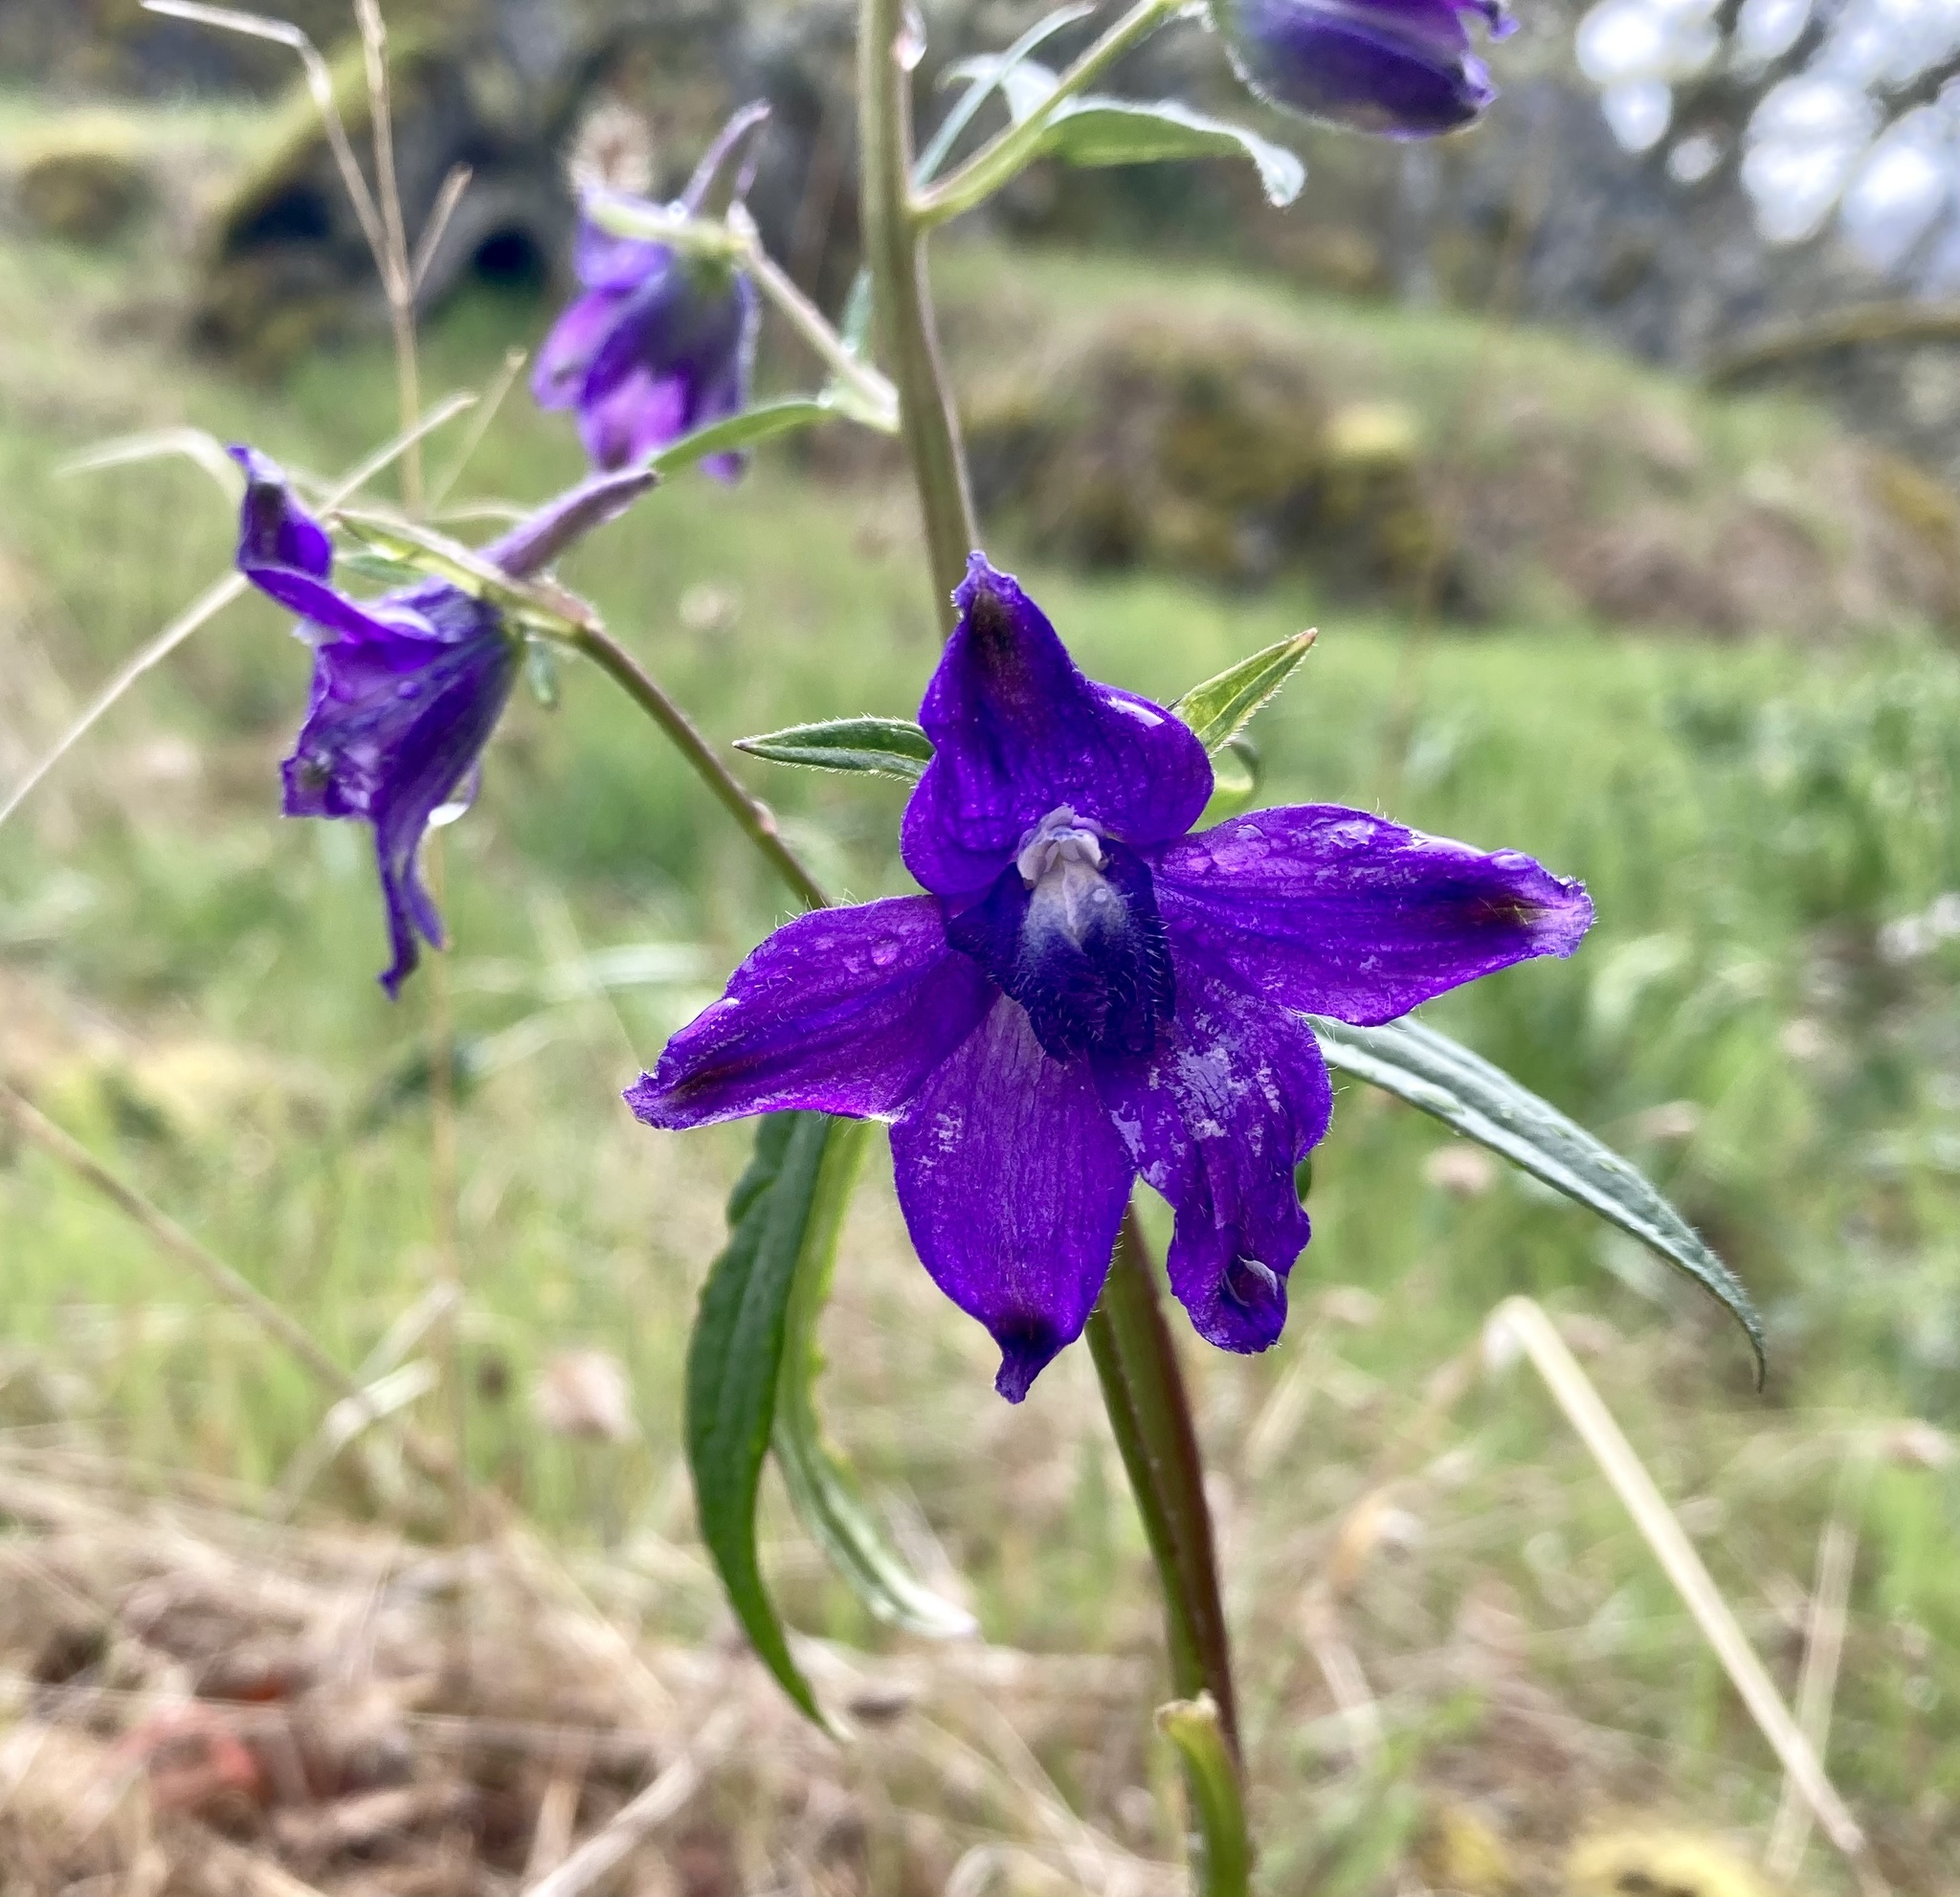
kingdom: Plantae
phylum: Tracheophyta
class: Magnoliopsida
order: Ranunculales
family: Ranunculaceae
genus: Delphinium
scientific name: Delphinium menziesii
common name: Menzies's larkspur
